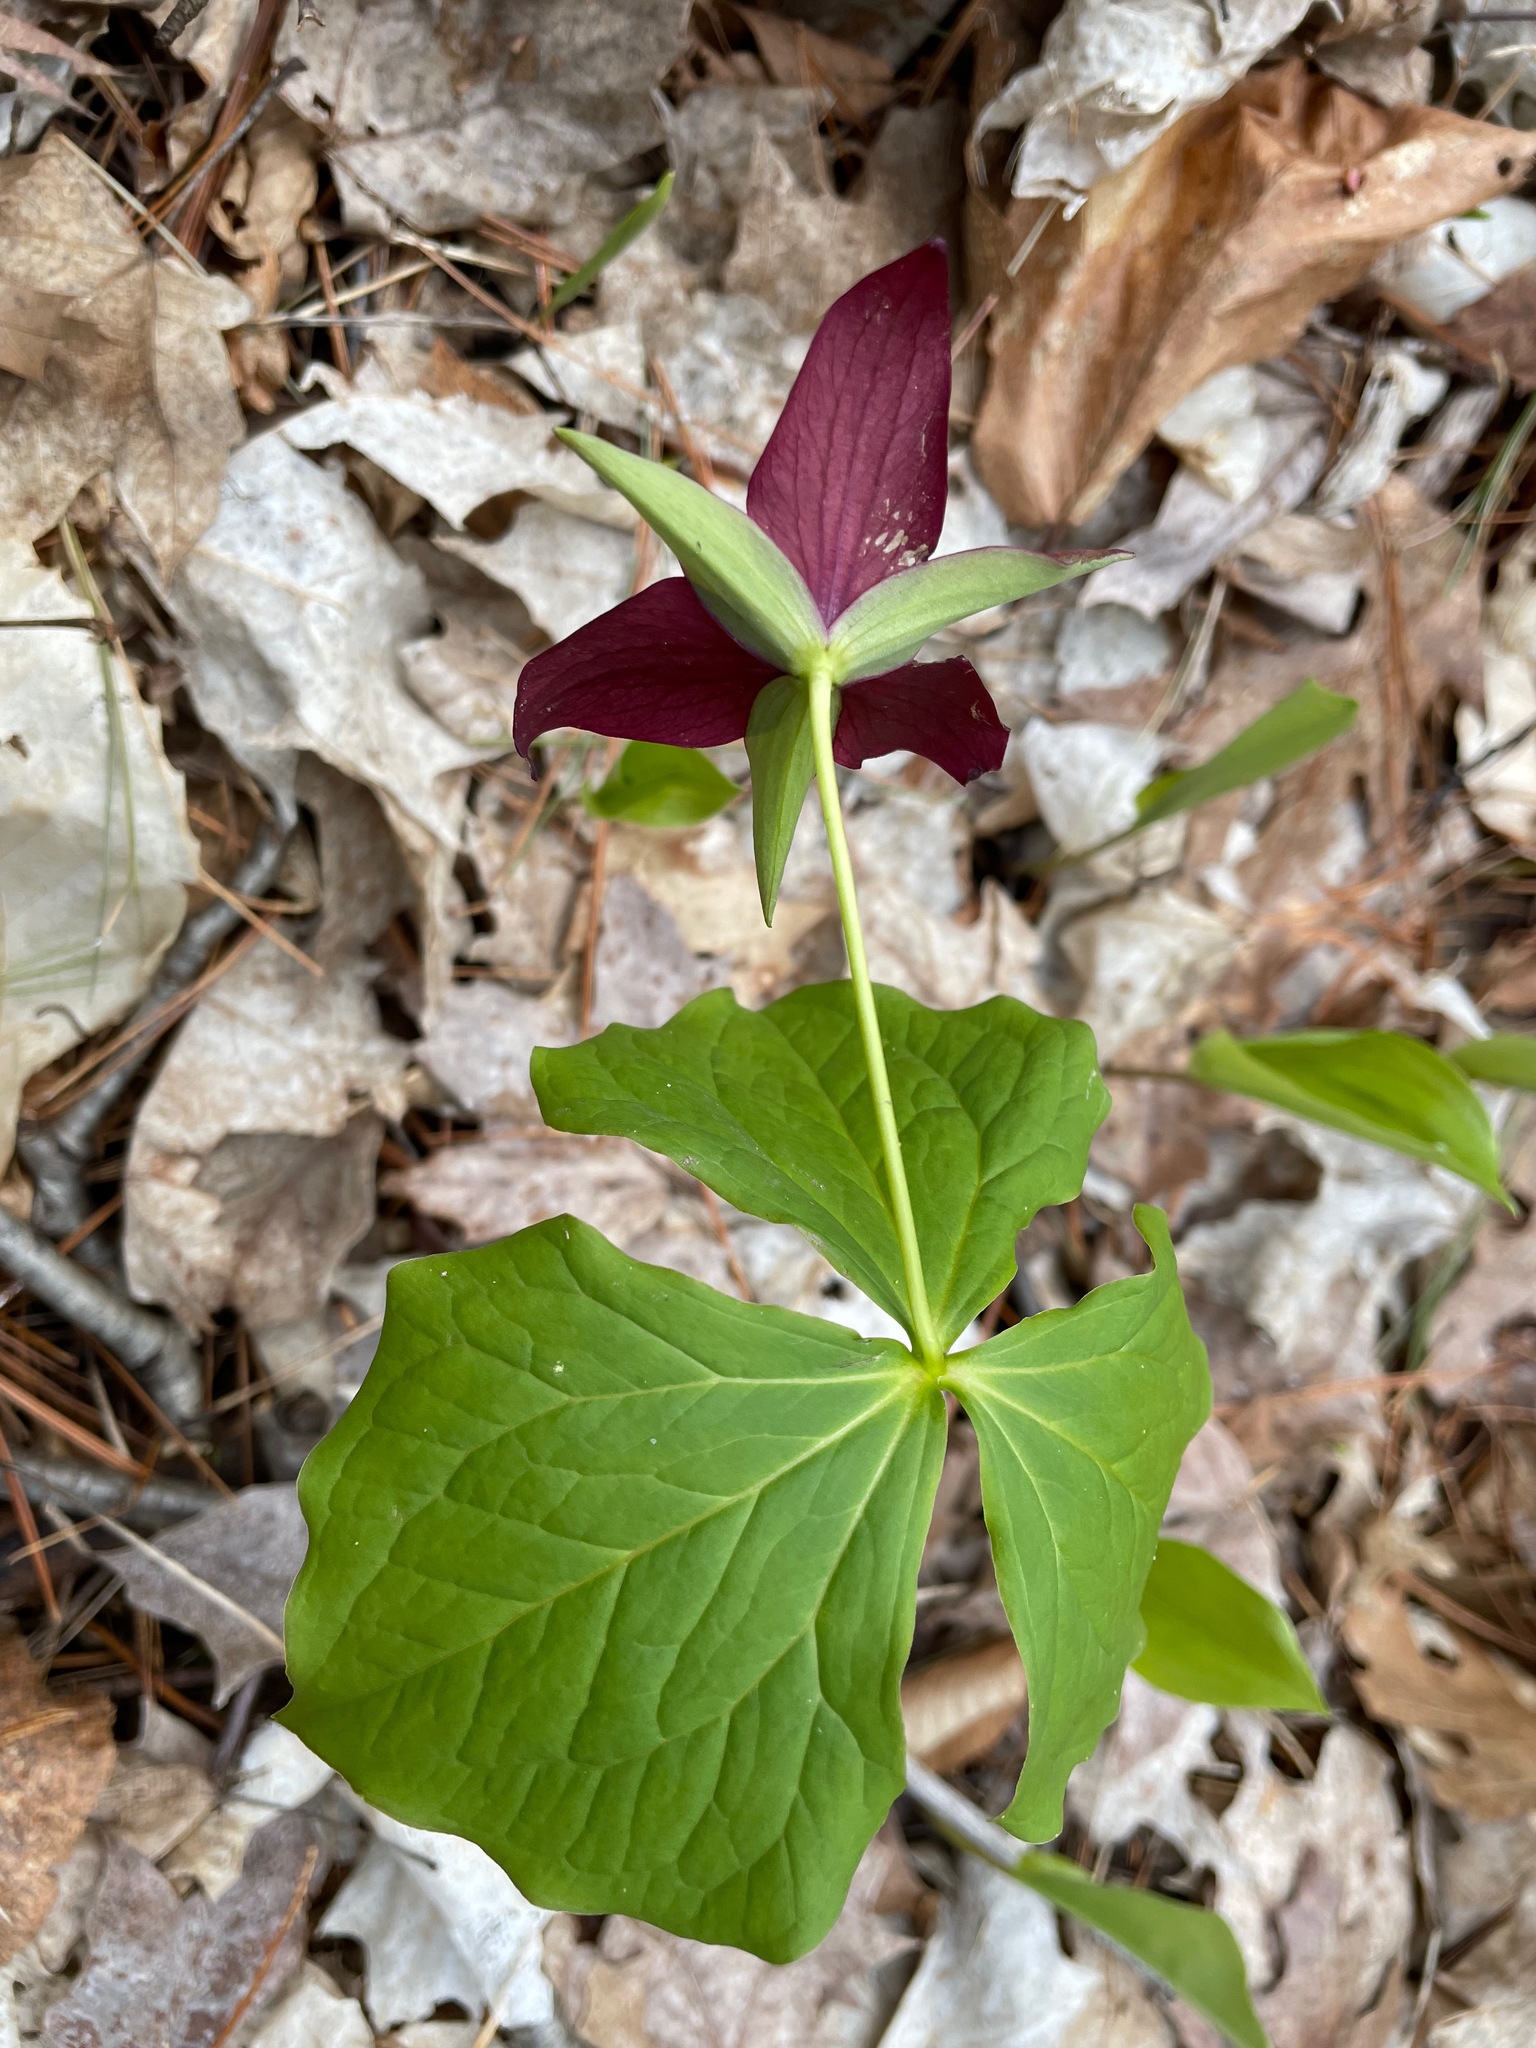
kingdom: Plantae
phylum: Tracheophyta
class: Liliopsida
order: Liliales
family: Melanthiaceae
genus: Trillium
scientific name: Trillium erectum
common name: Purple trillium
